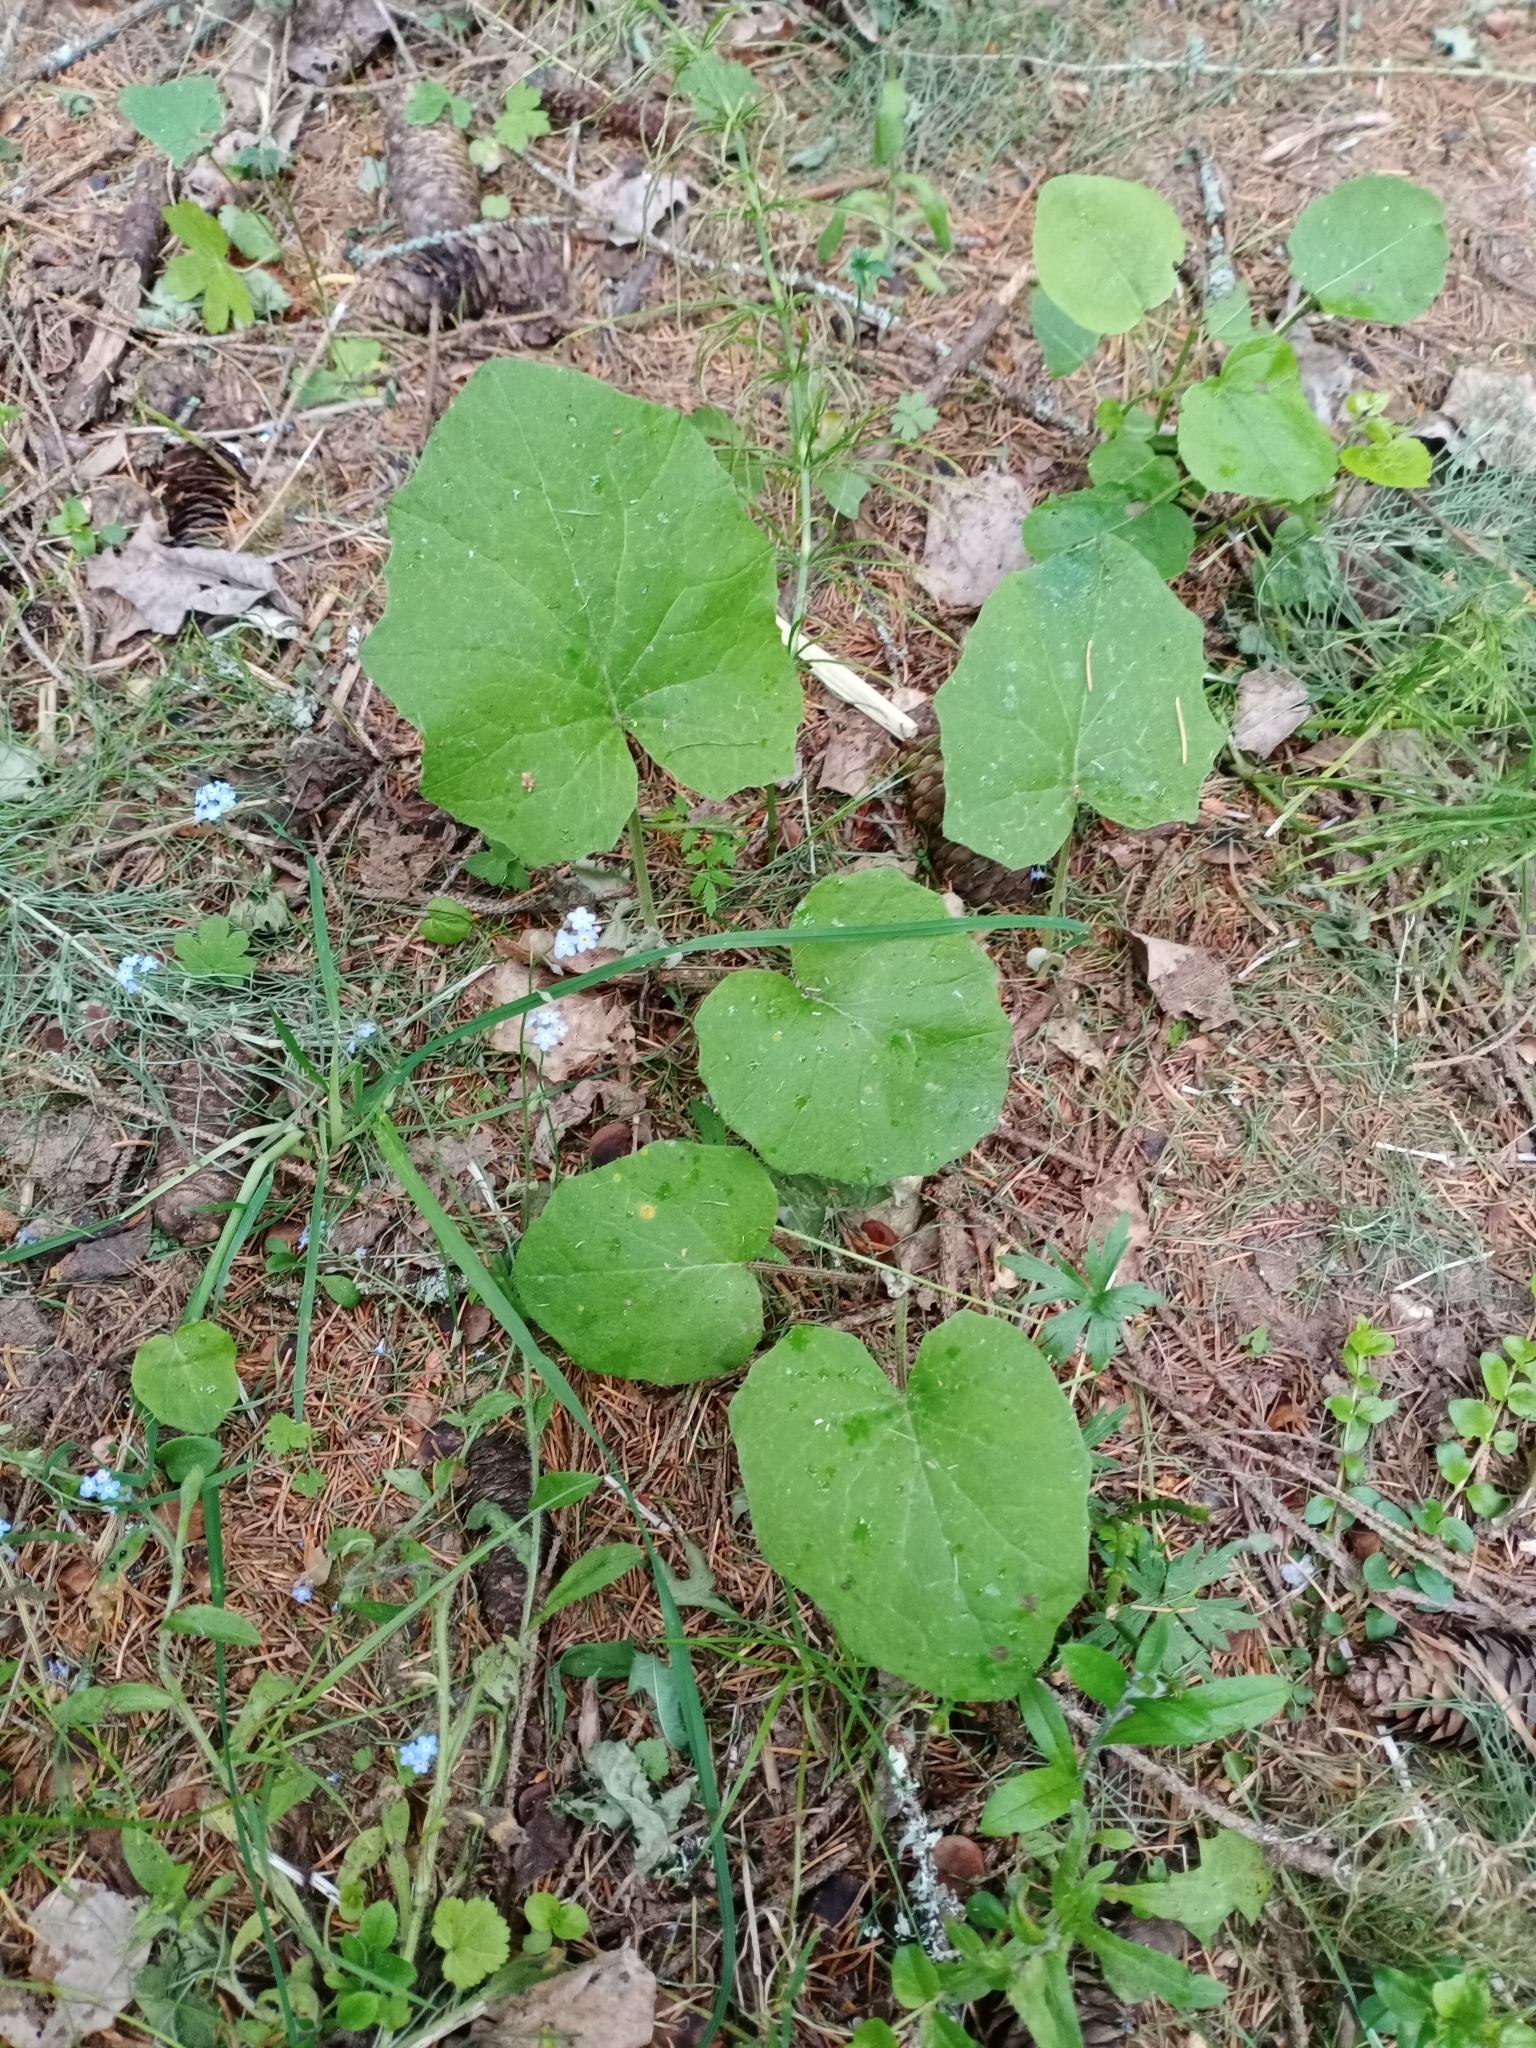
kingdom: Plantae
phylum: Tracheophyta
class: Magnoliopsida
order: Asterales
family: Asteraceae
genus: Tussilago
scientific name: Tussilago farfara
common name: Coltsfoot
